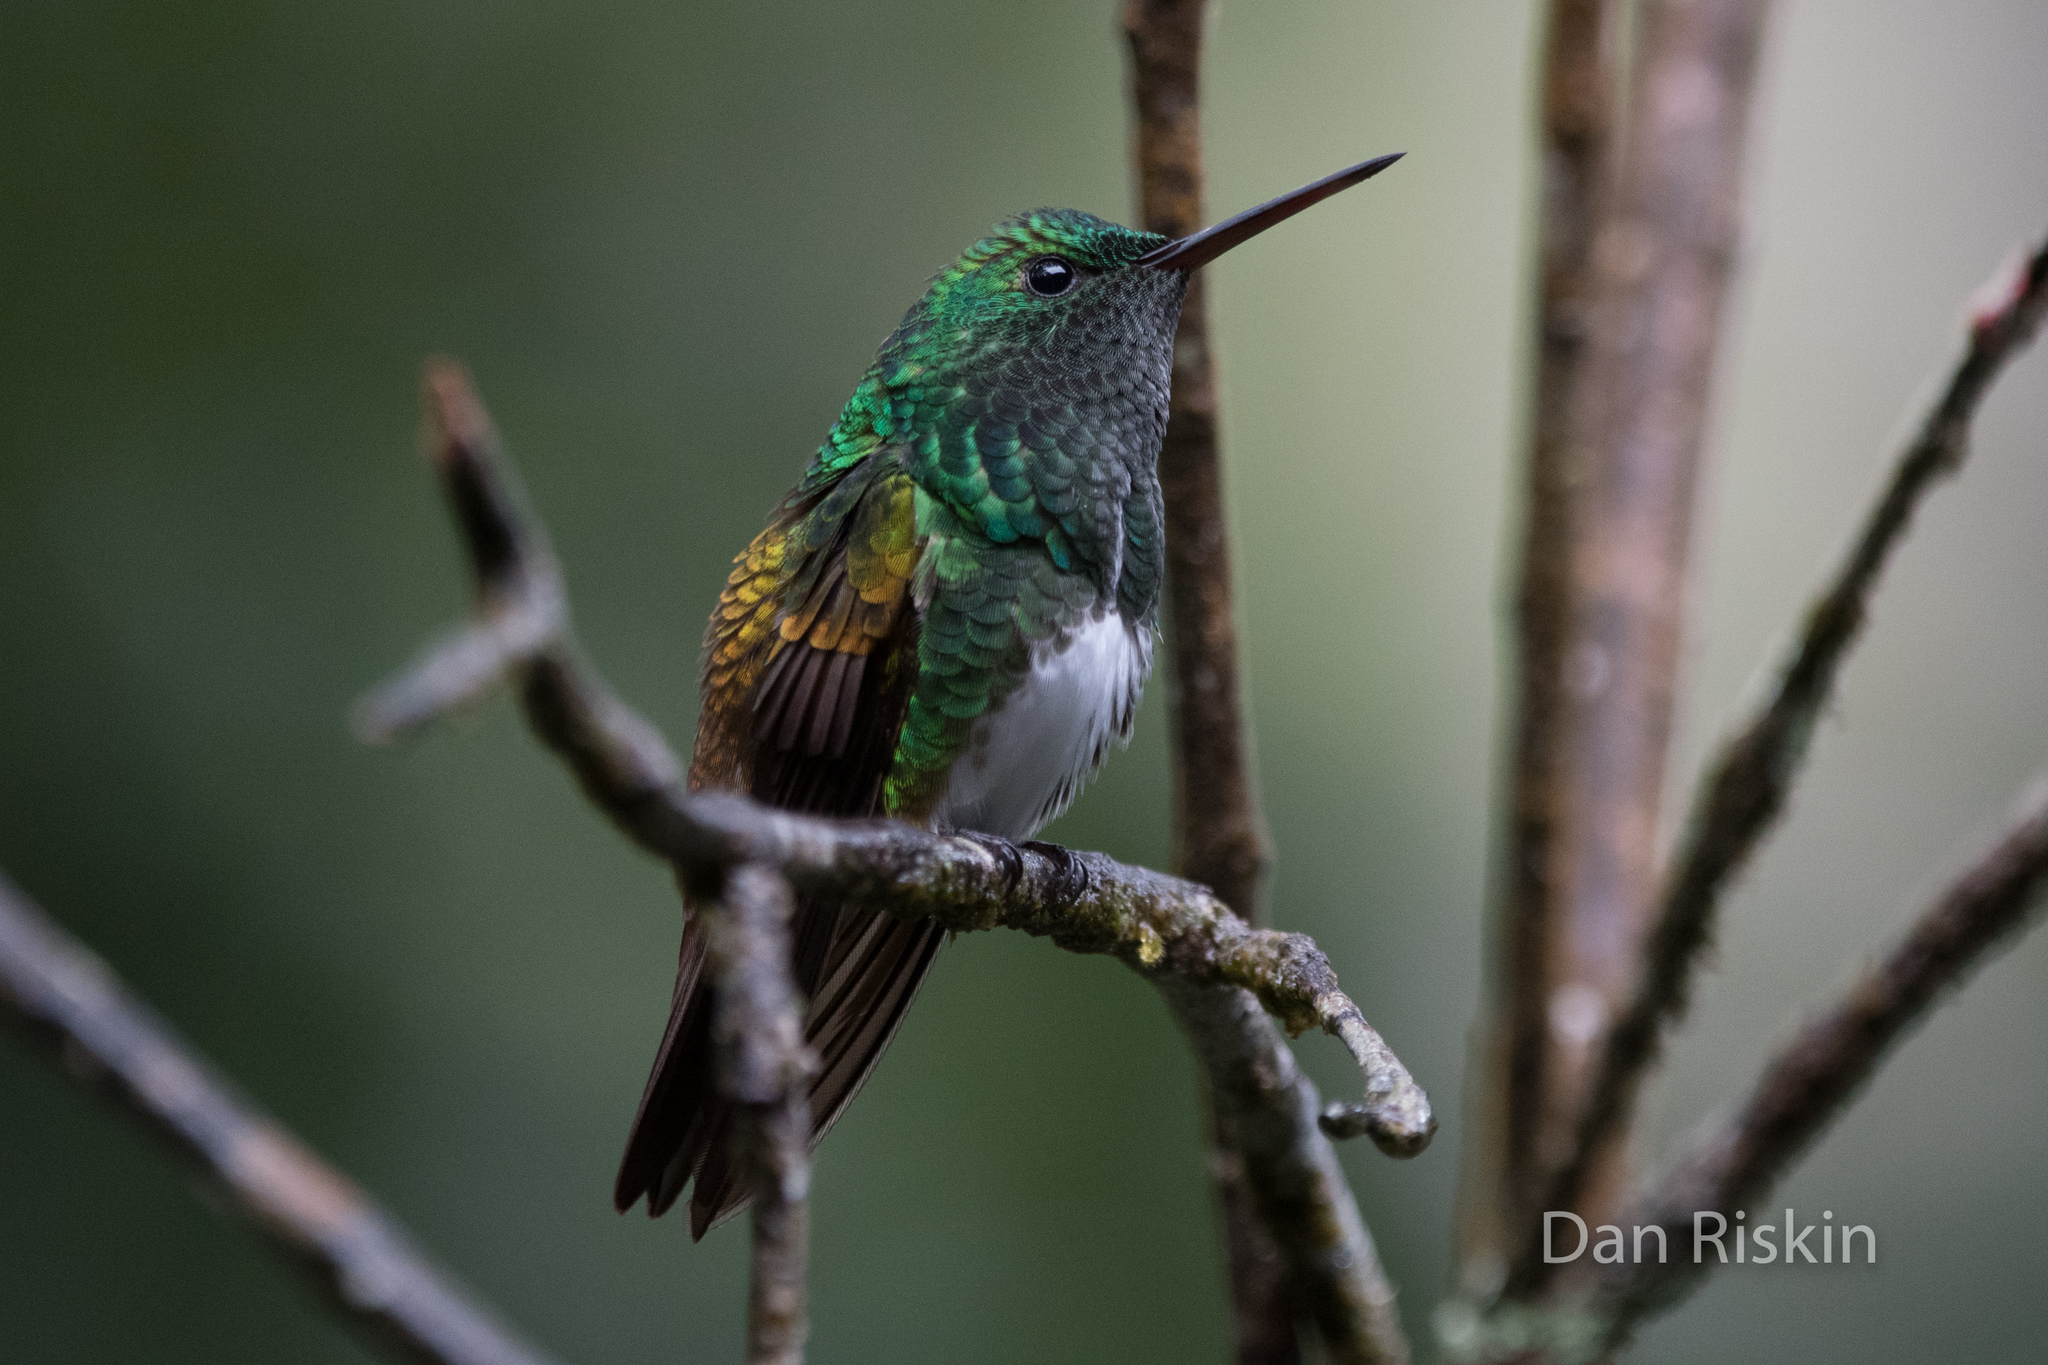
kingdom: Animalia
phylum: Chordata
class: Aves
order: Apodiformes
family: Trochilidae
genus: Saucerottia
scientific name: Saucerottia edward
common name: Snowy-bellied hummingbird
